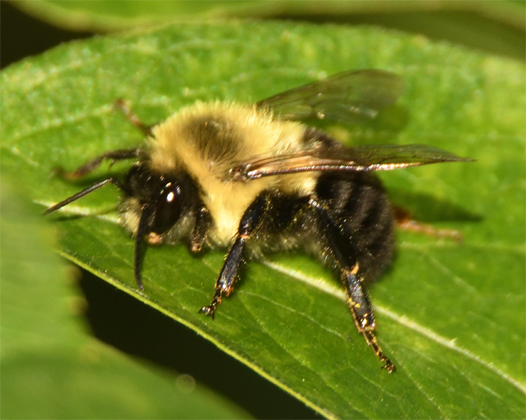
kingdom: Animalia
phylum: Arthropoda
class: Insecta
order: Hymenoptera
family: Apidae
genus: Bombus
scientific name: Bombus impatiens
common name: Common eastern bumble bee
